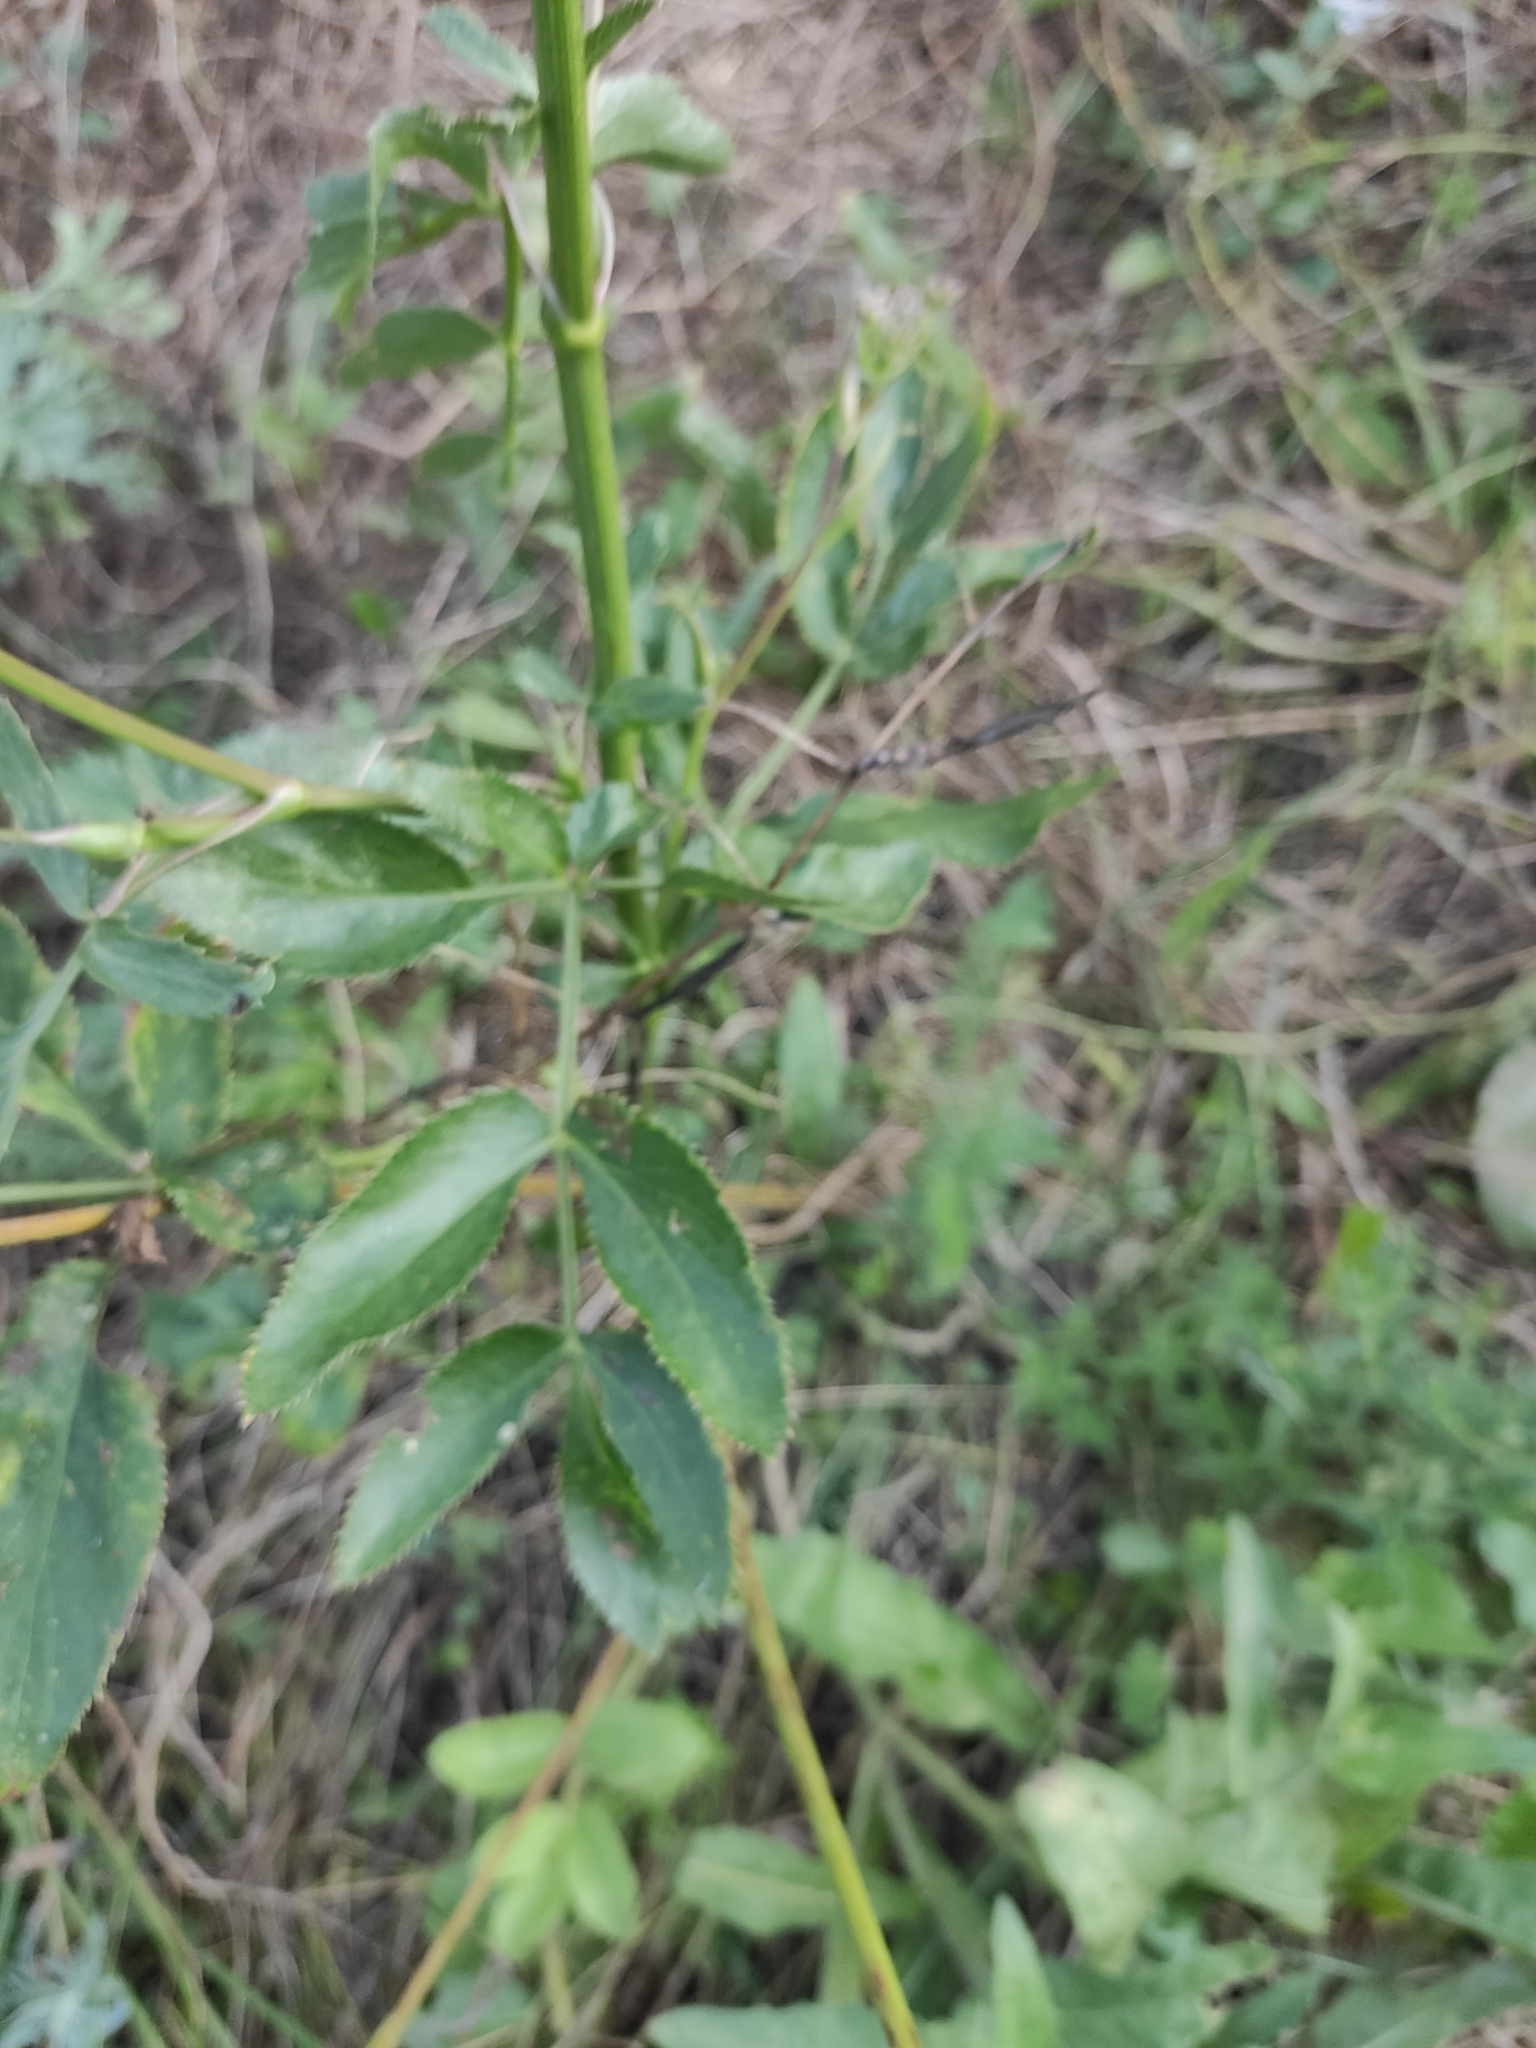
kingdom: Plantae
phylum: Tracheophyta
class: Magnoliopsida
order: Apiales
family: Apiaceae
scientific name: Apiaceae
